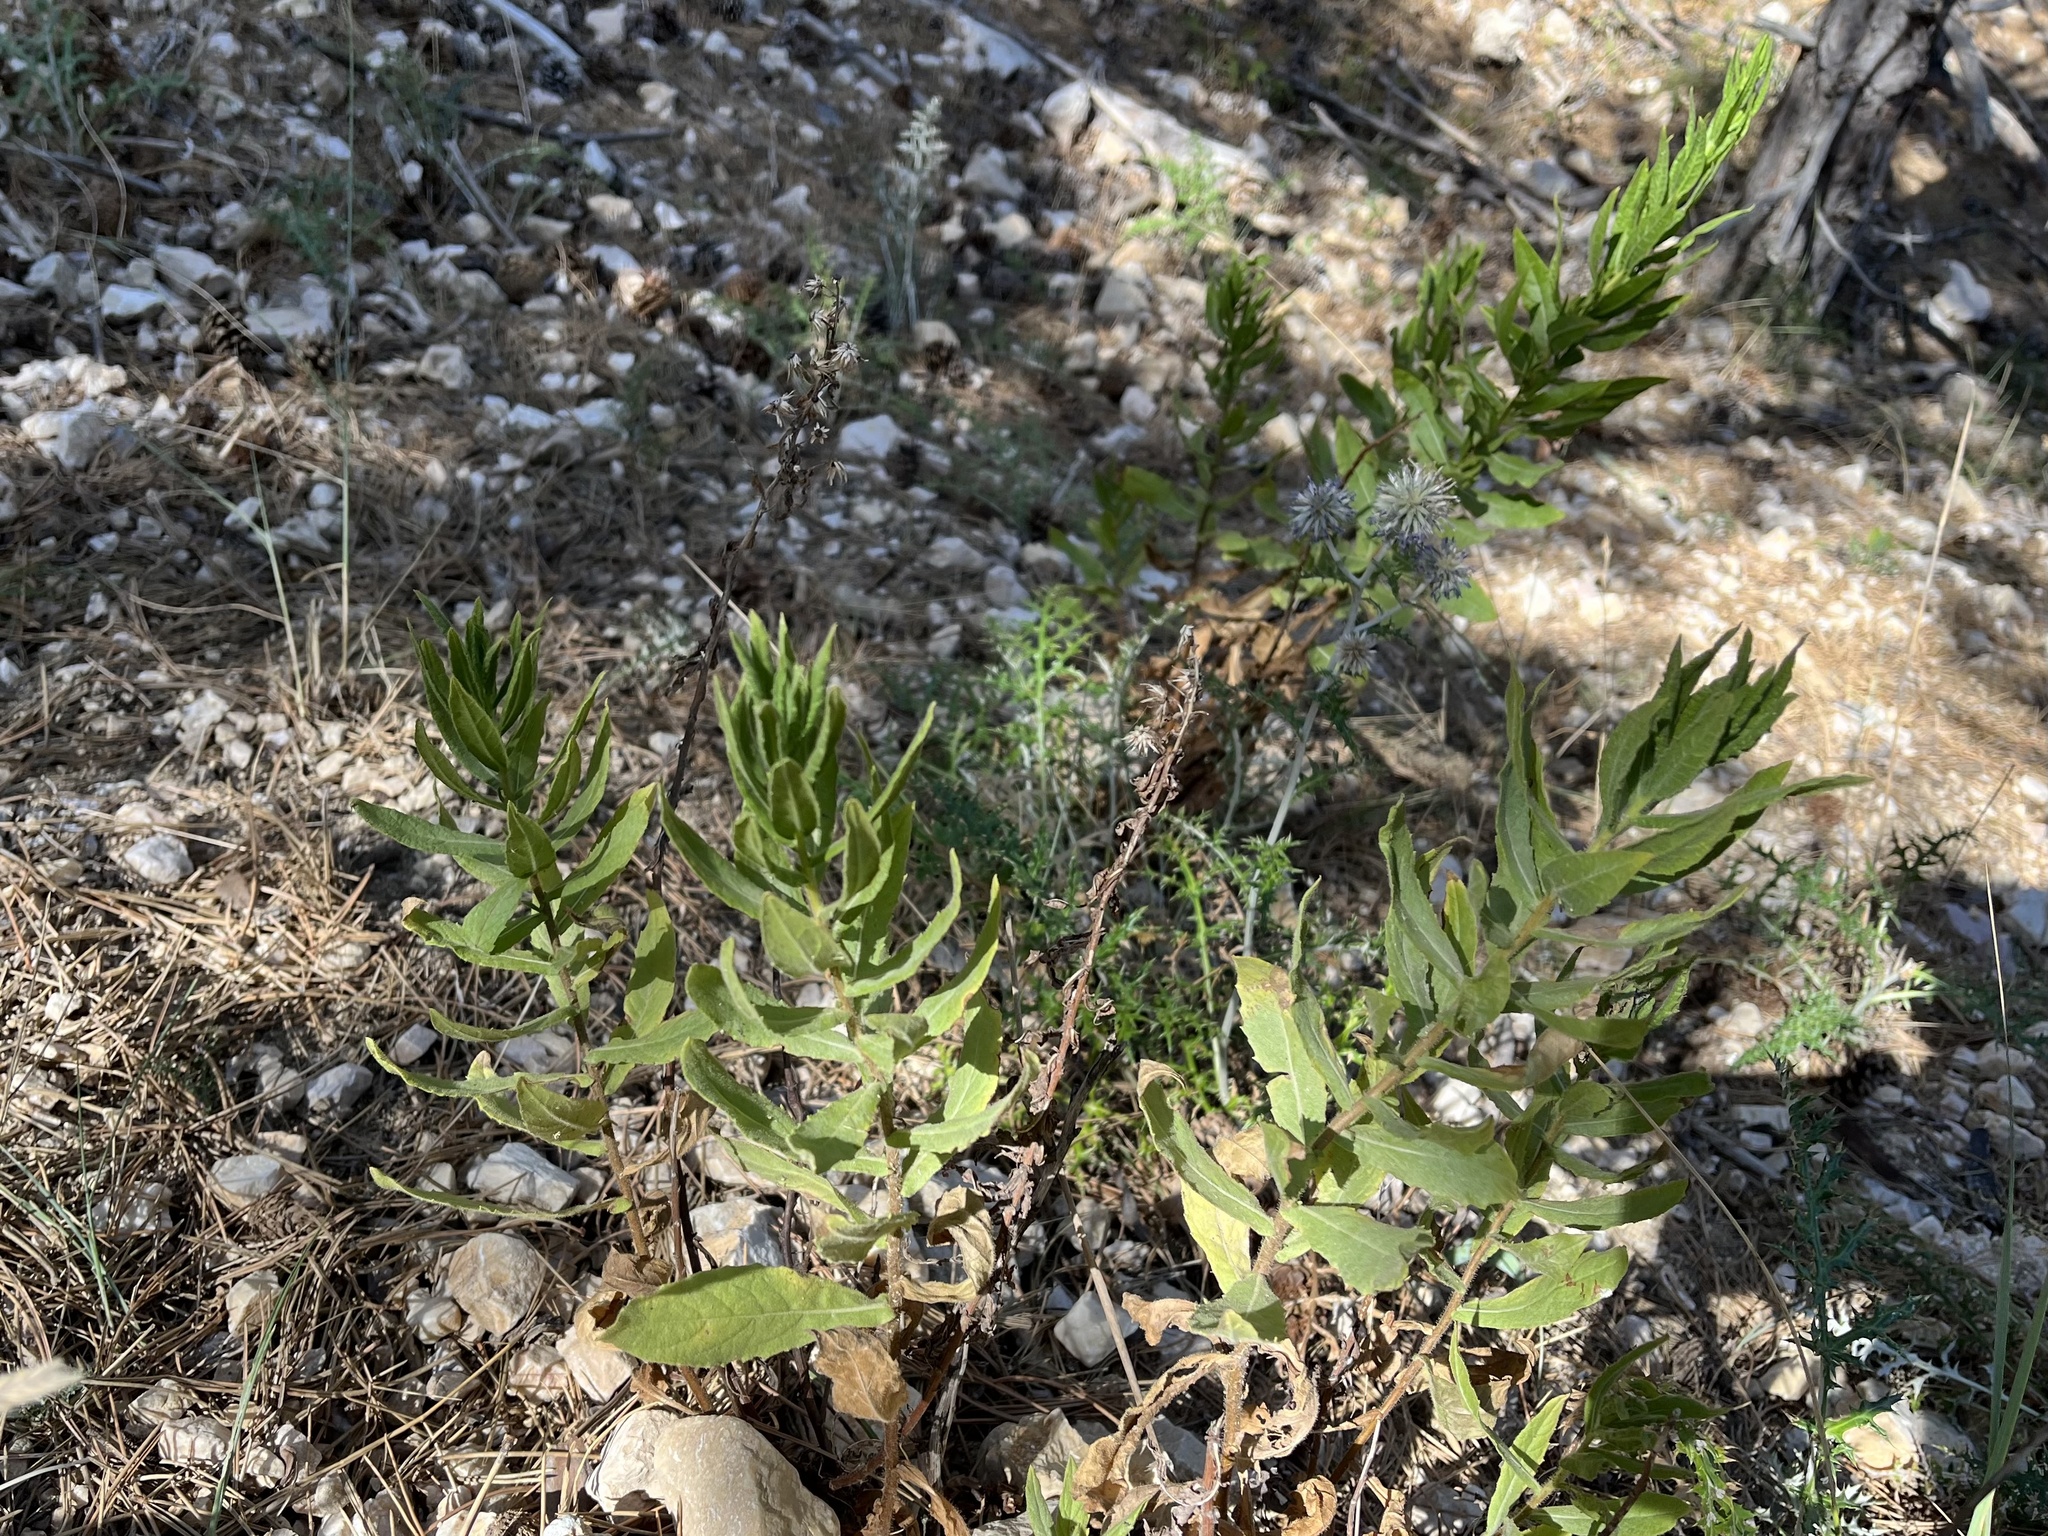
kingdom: Plantae
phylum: Tracheophyta
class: Magnoliopsida
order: Asterales
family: Asteraceae
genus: Dittrichia
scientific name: Dittrichia viscosa
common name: Woody fleabane
